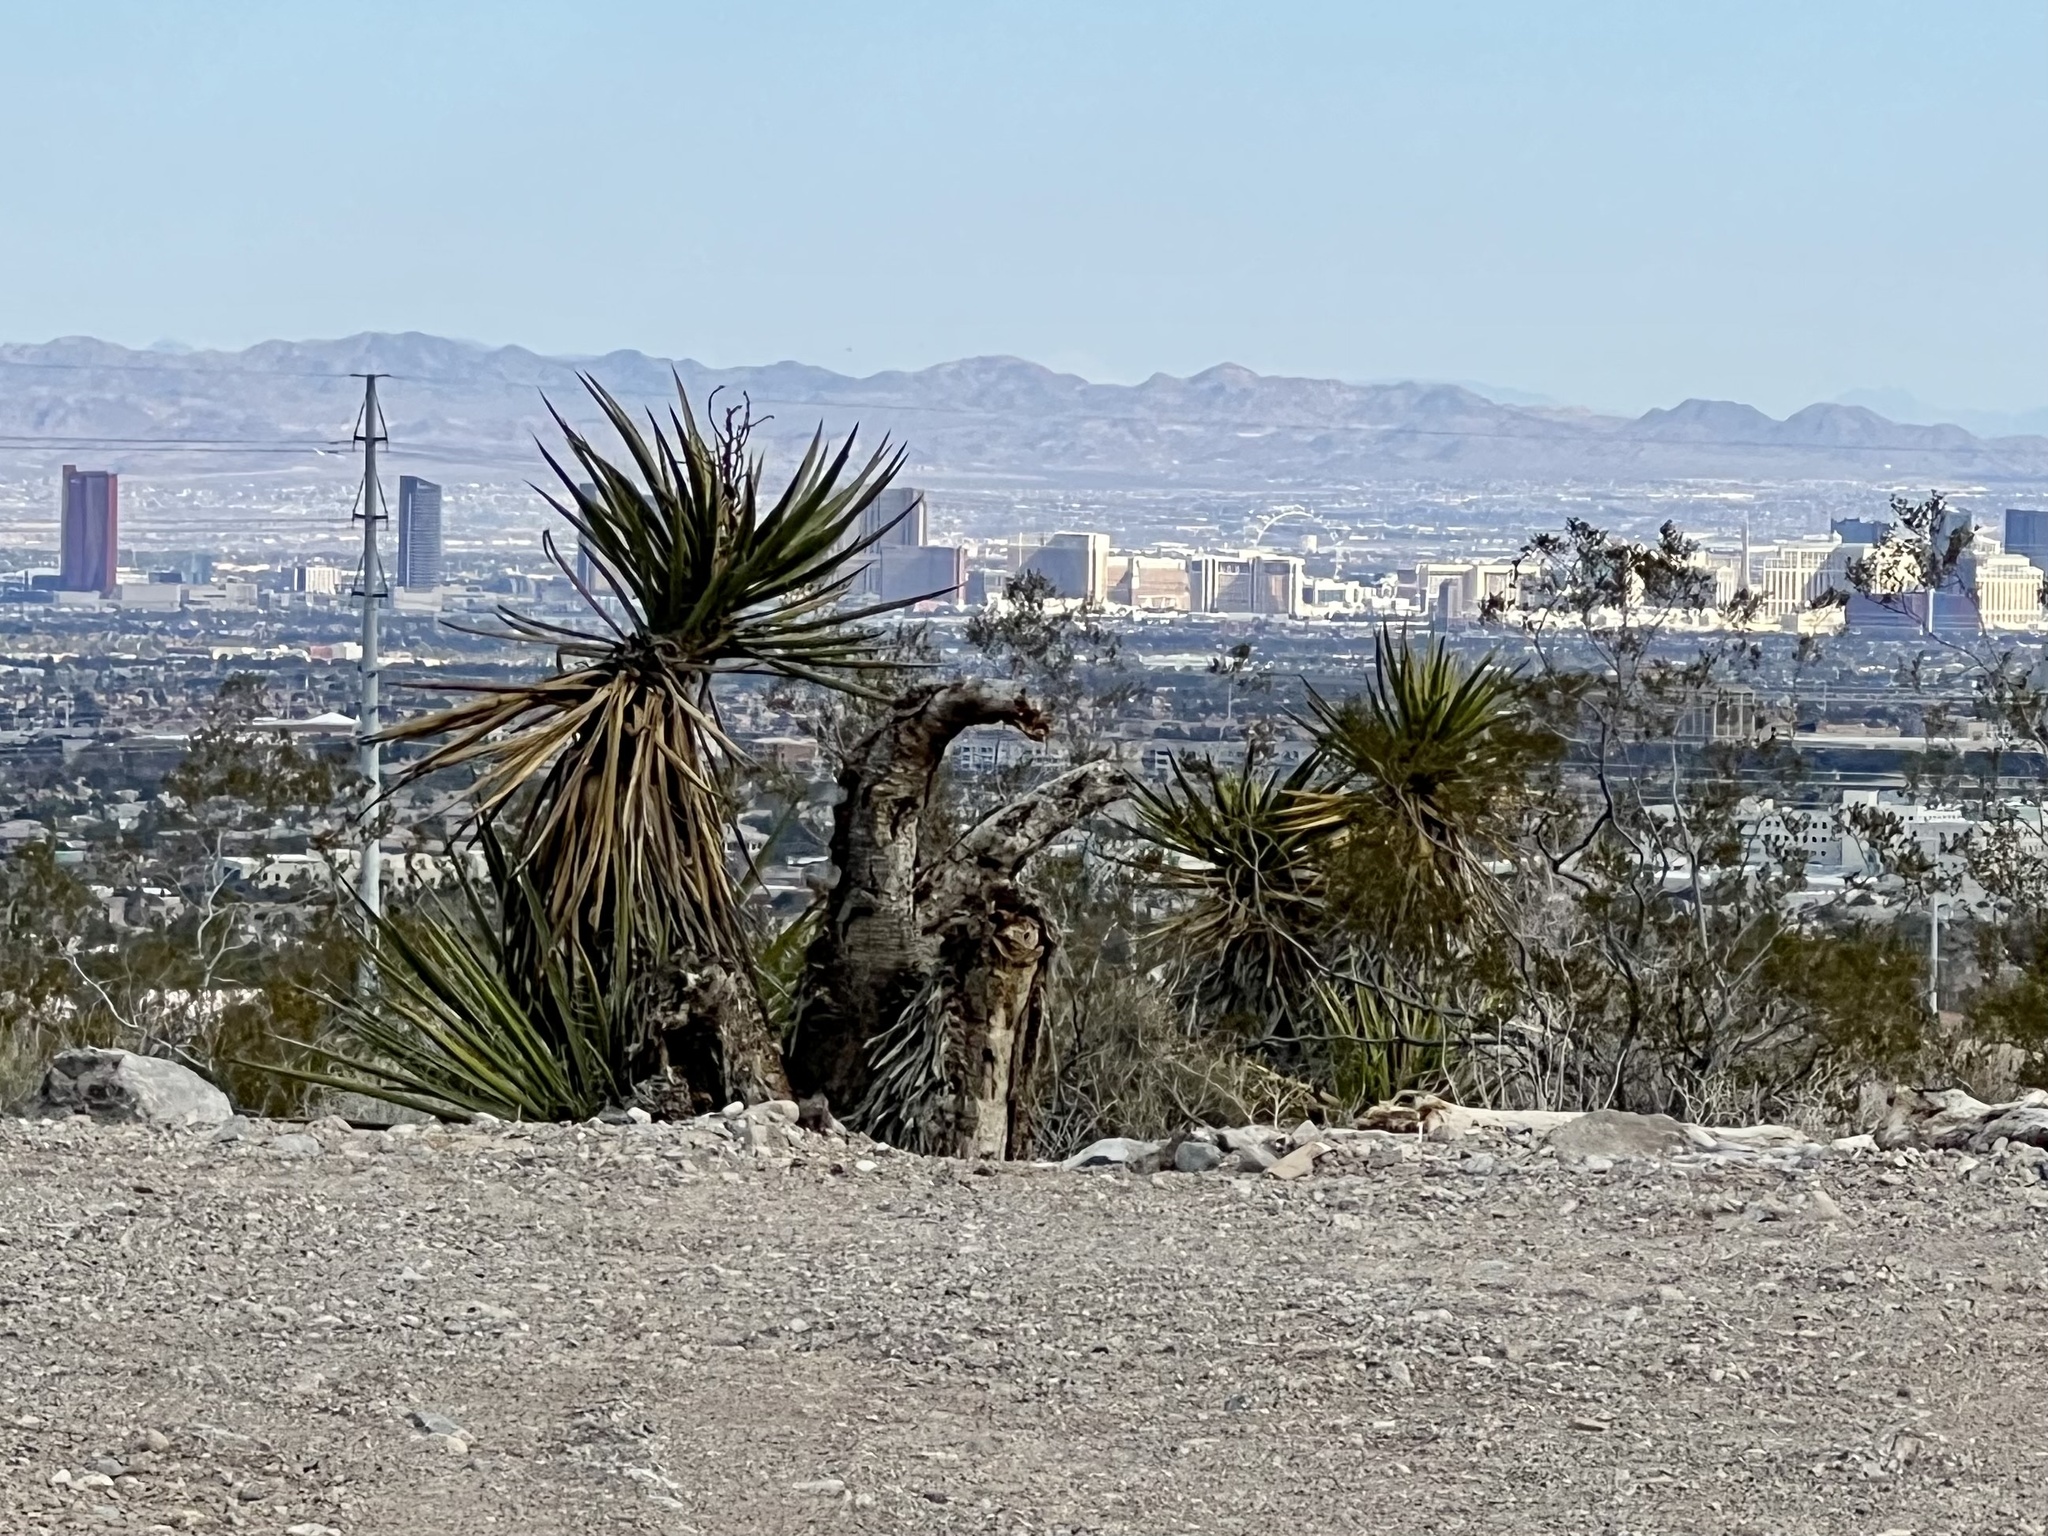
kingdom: Plantae
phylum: Tracheophyta
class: Liliopsida
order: Asparagales
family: Asparagaceae
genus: Yucca
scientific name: Yucca schidigera
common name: Mojave yucca
